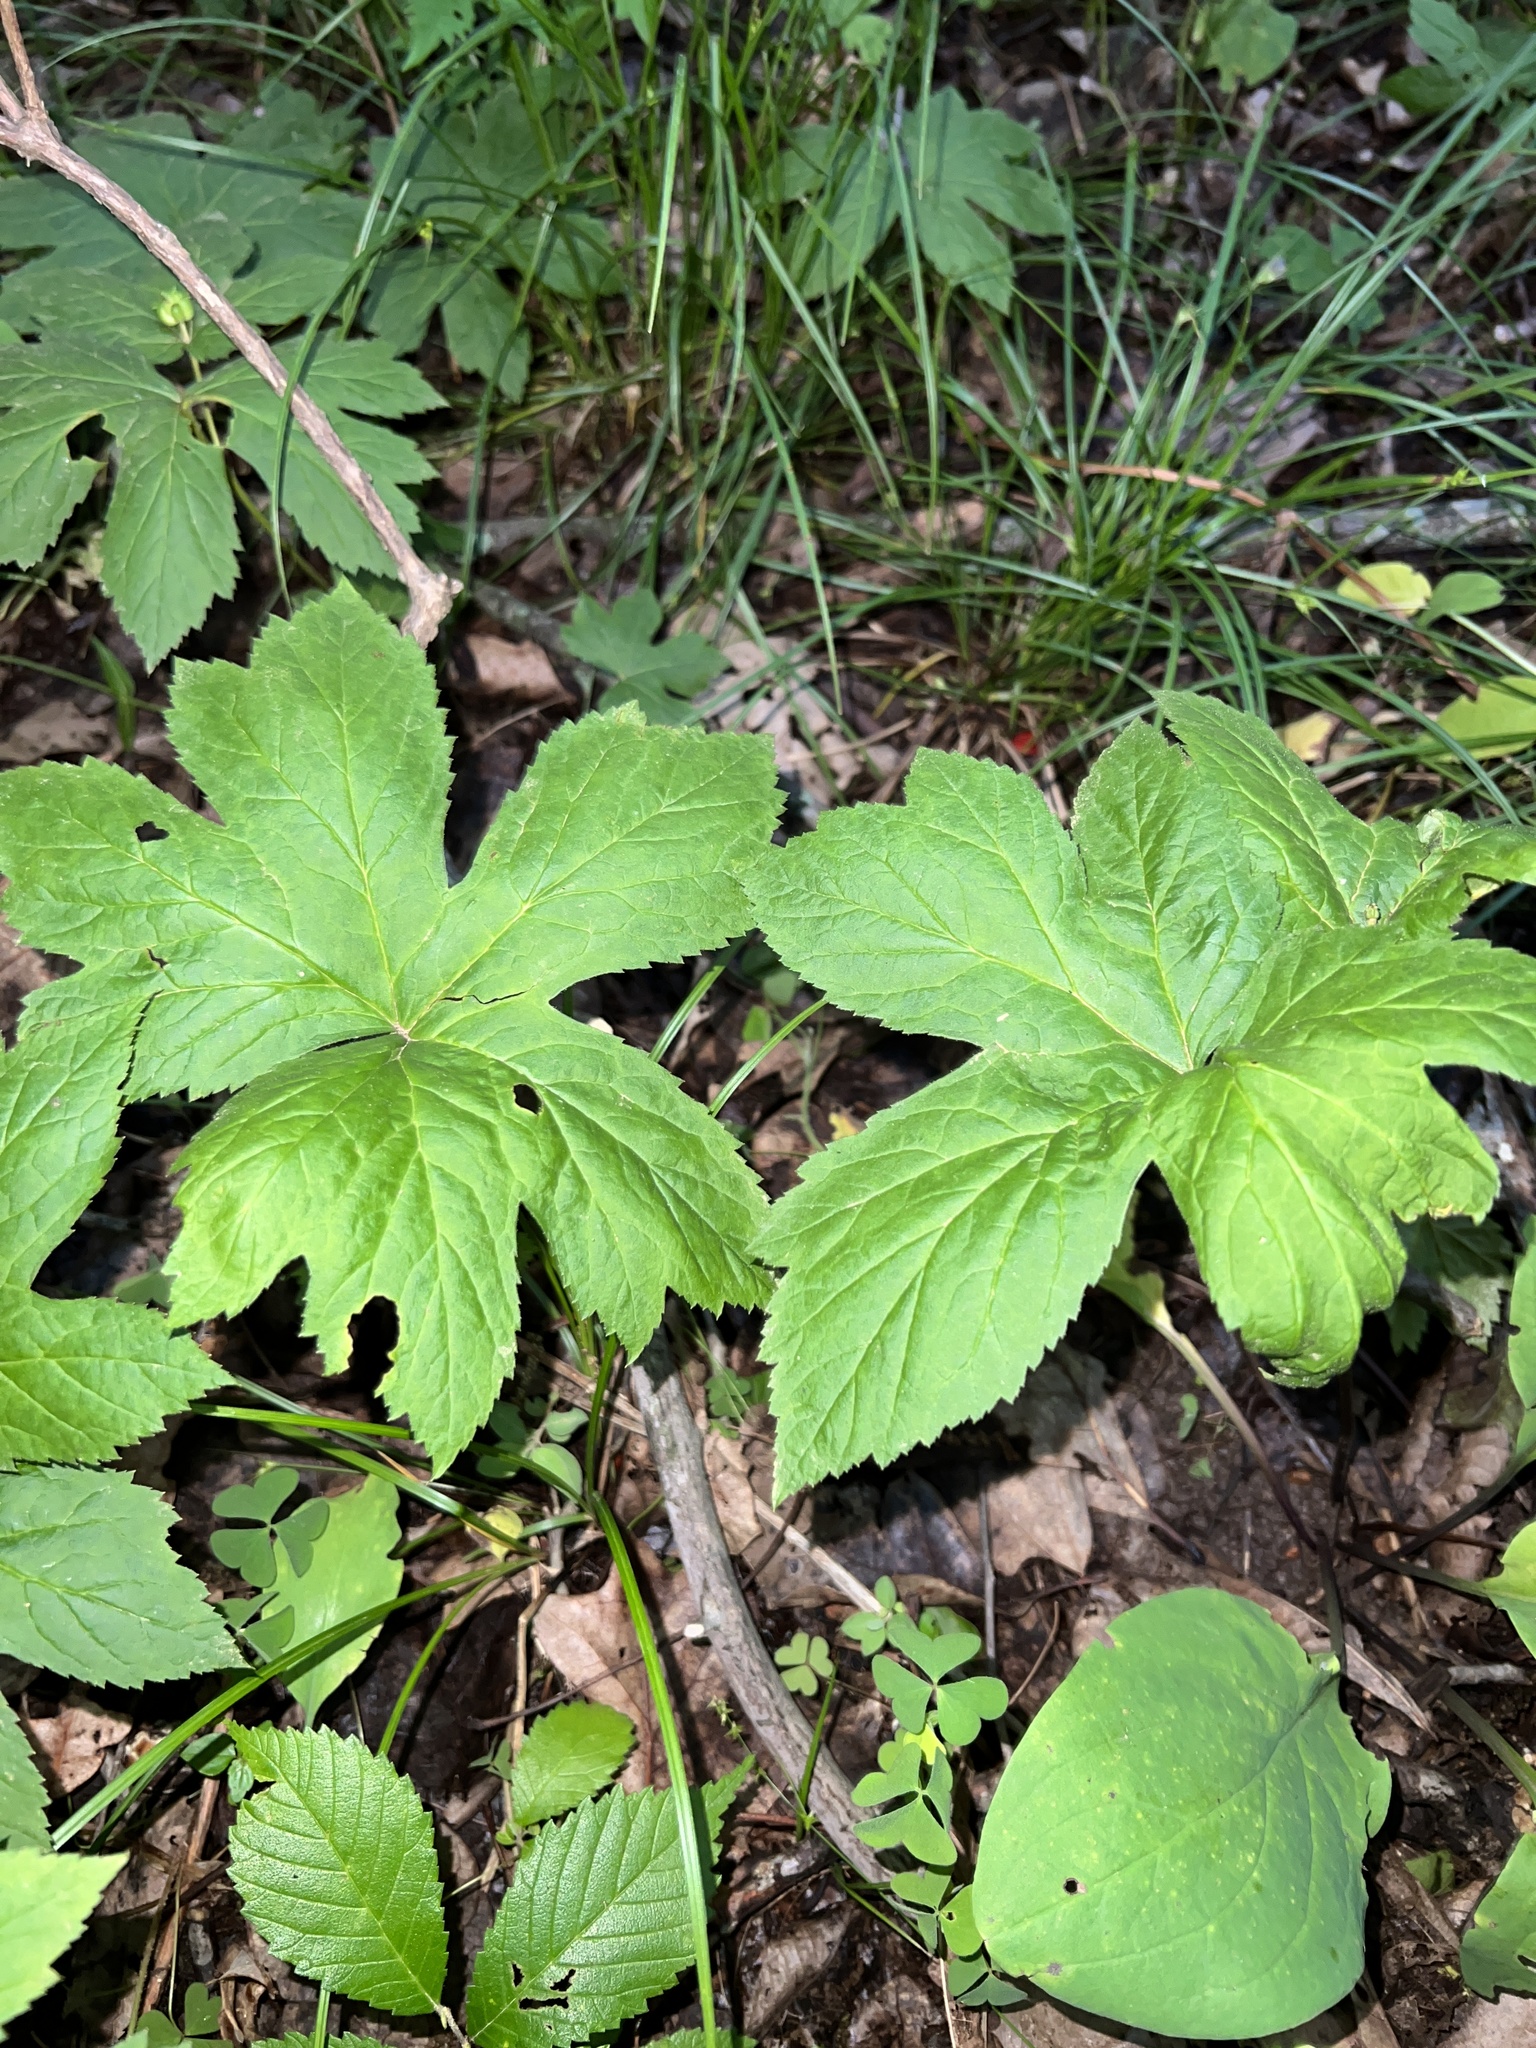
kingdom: Plantae
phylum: Tracheophyta
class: Magnoliopsida
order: Ranunculales
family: Ranunculaceae
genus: Hydrastis
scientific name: Hydrastis canadensis
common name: Goldenseal
